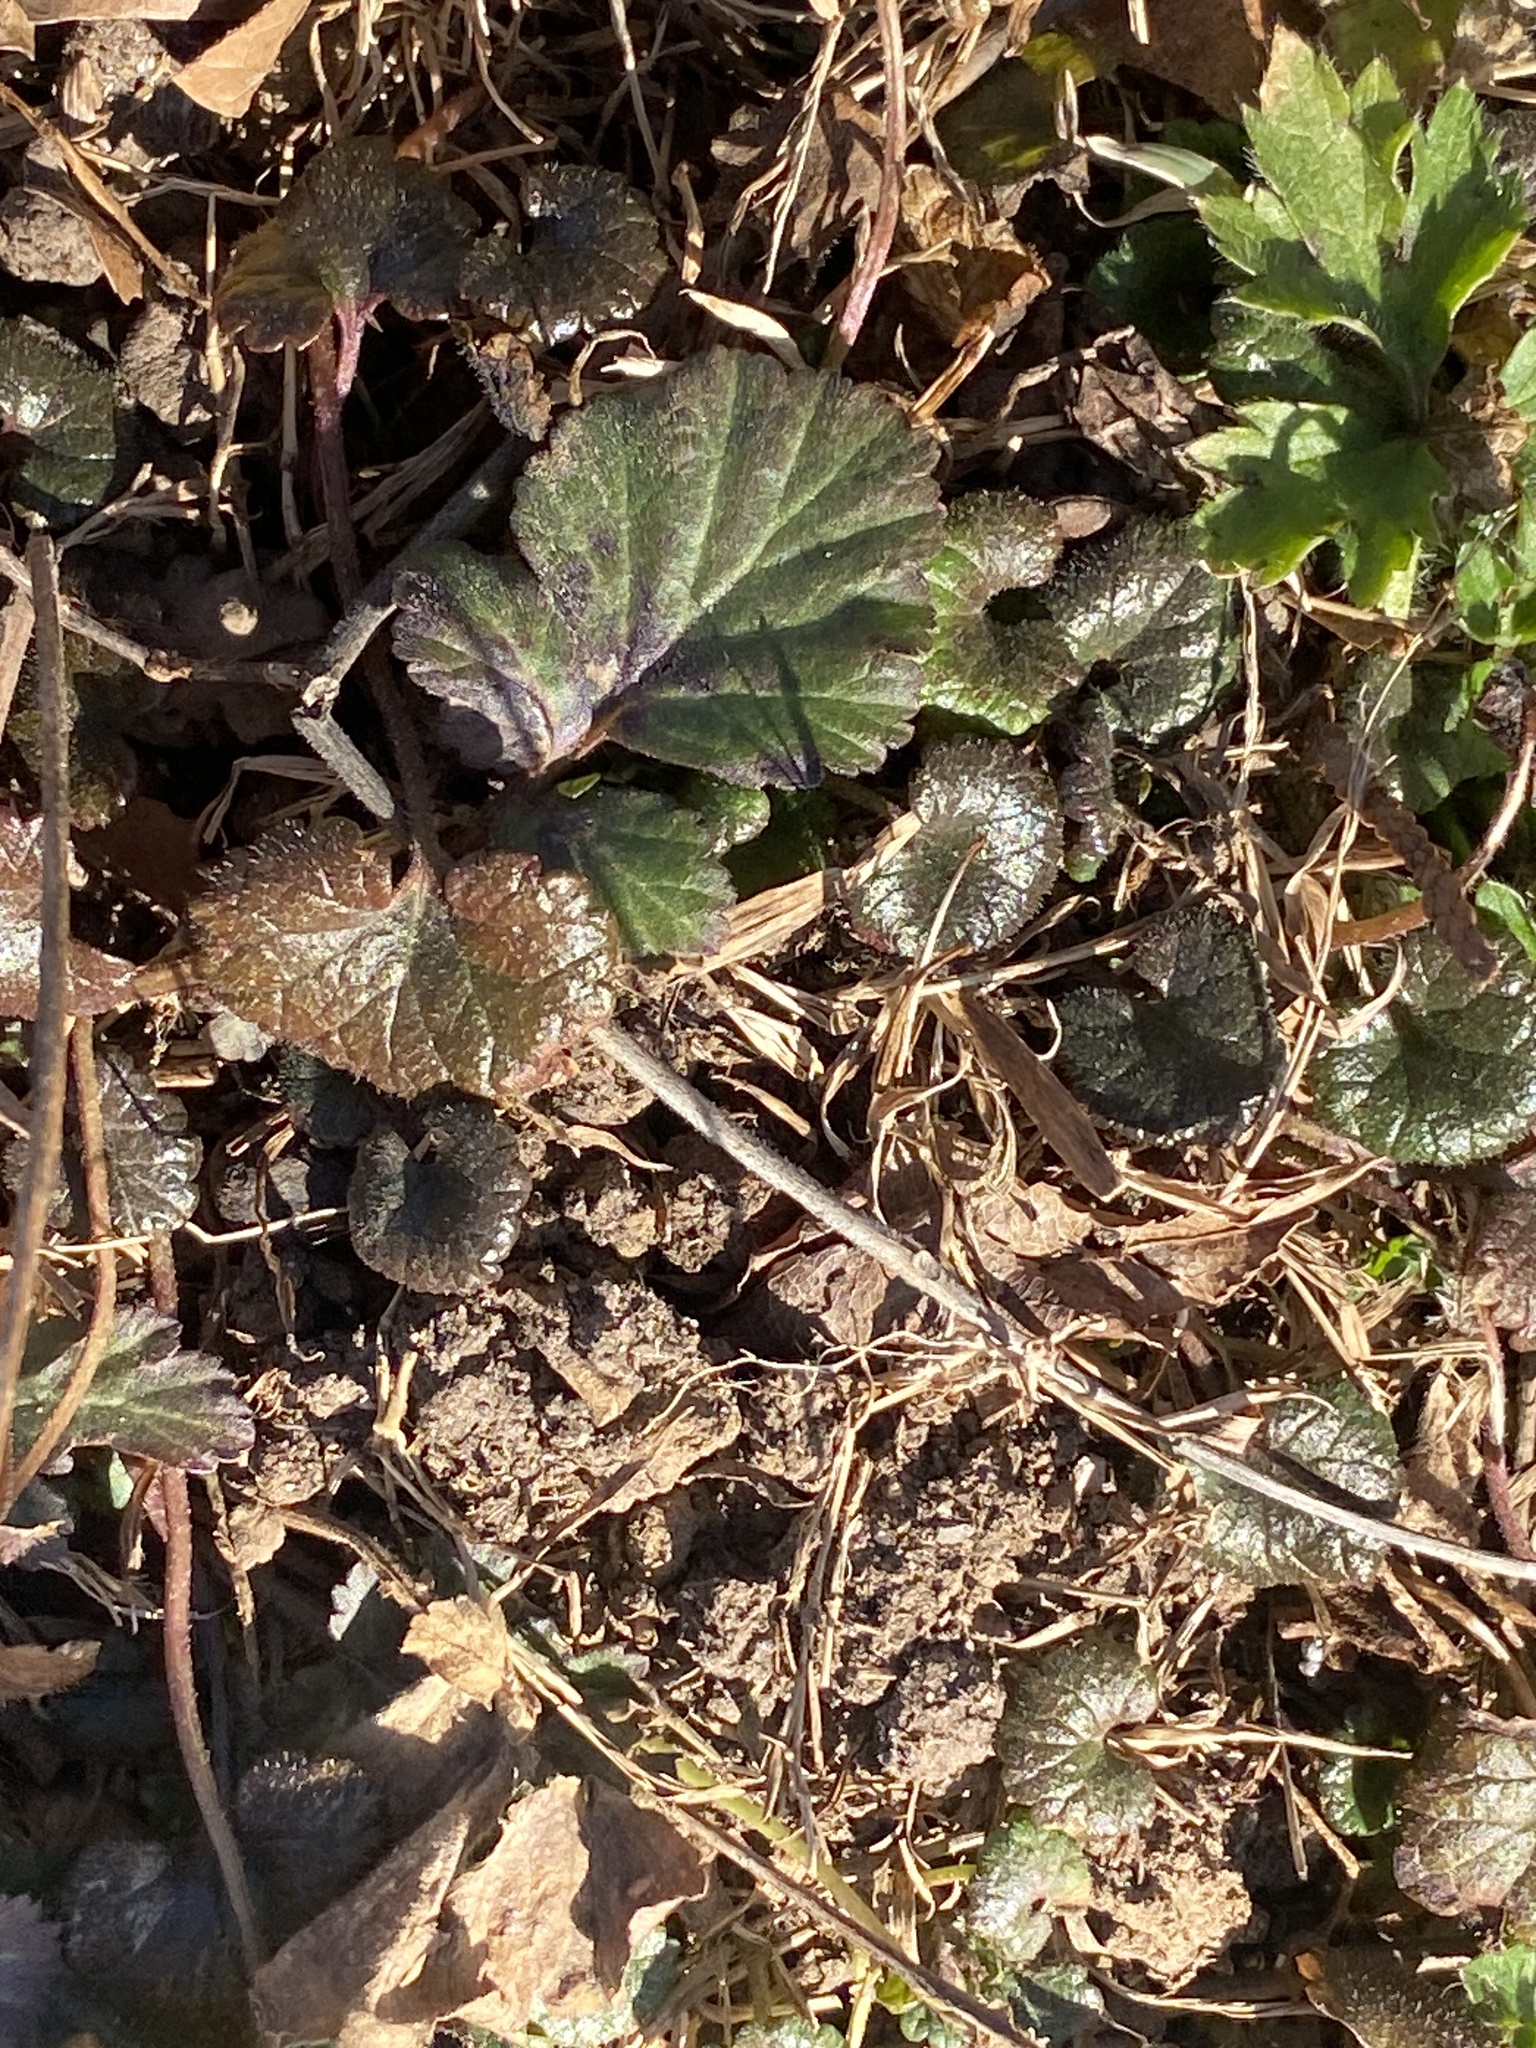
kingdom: Plantae
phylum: Tracheophyta
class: Magnoliopsida
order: Rosales
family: Rosaceae
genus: Geum
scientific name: Geum canadense
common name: White avens
